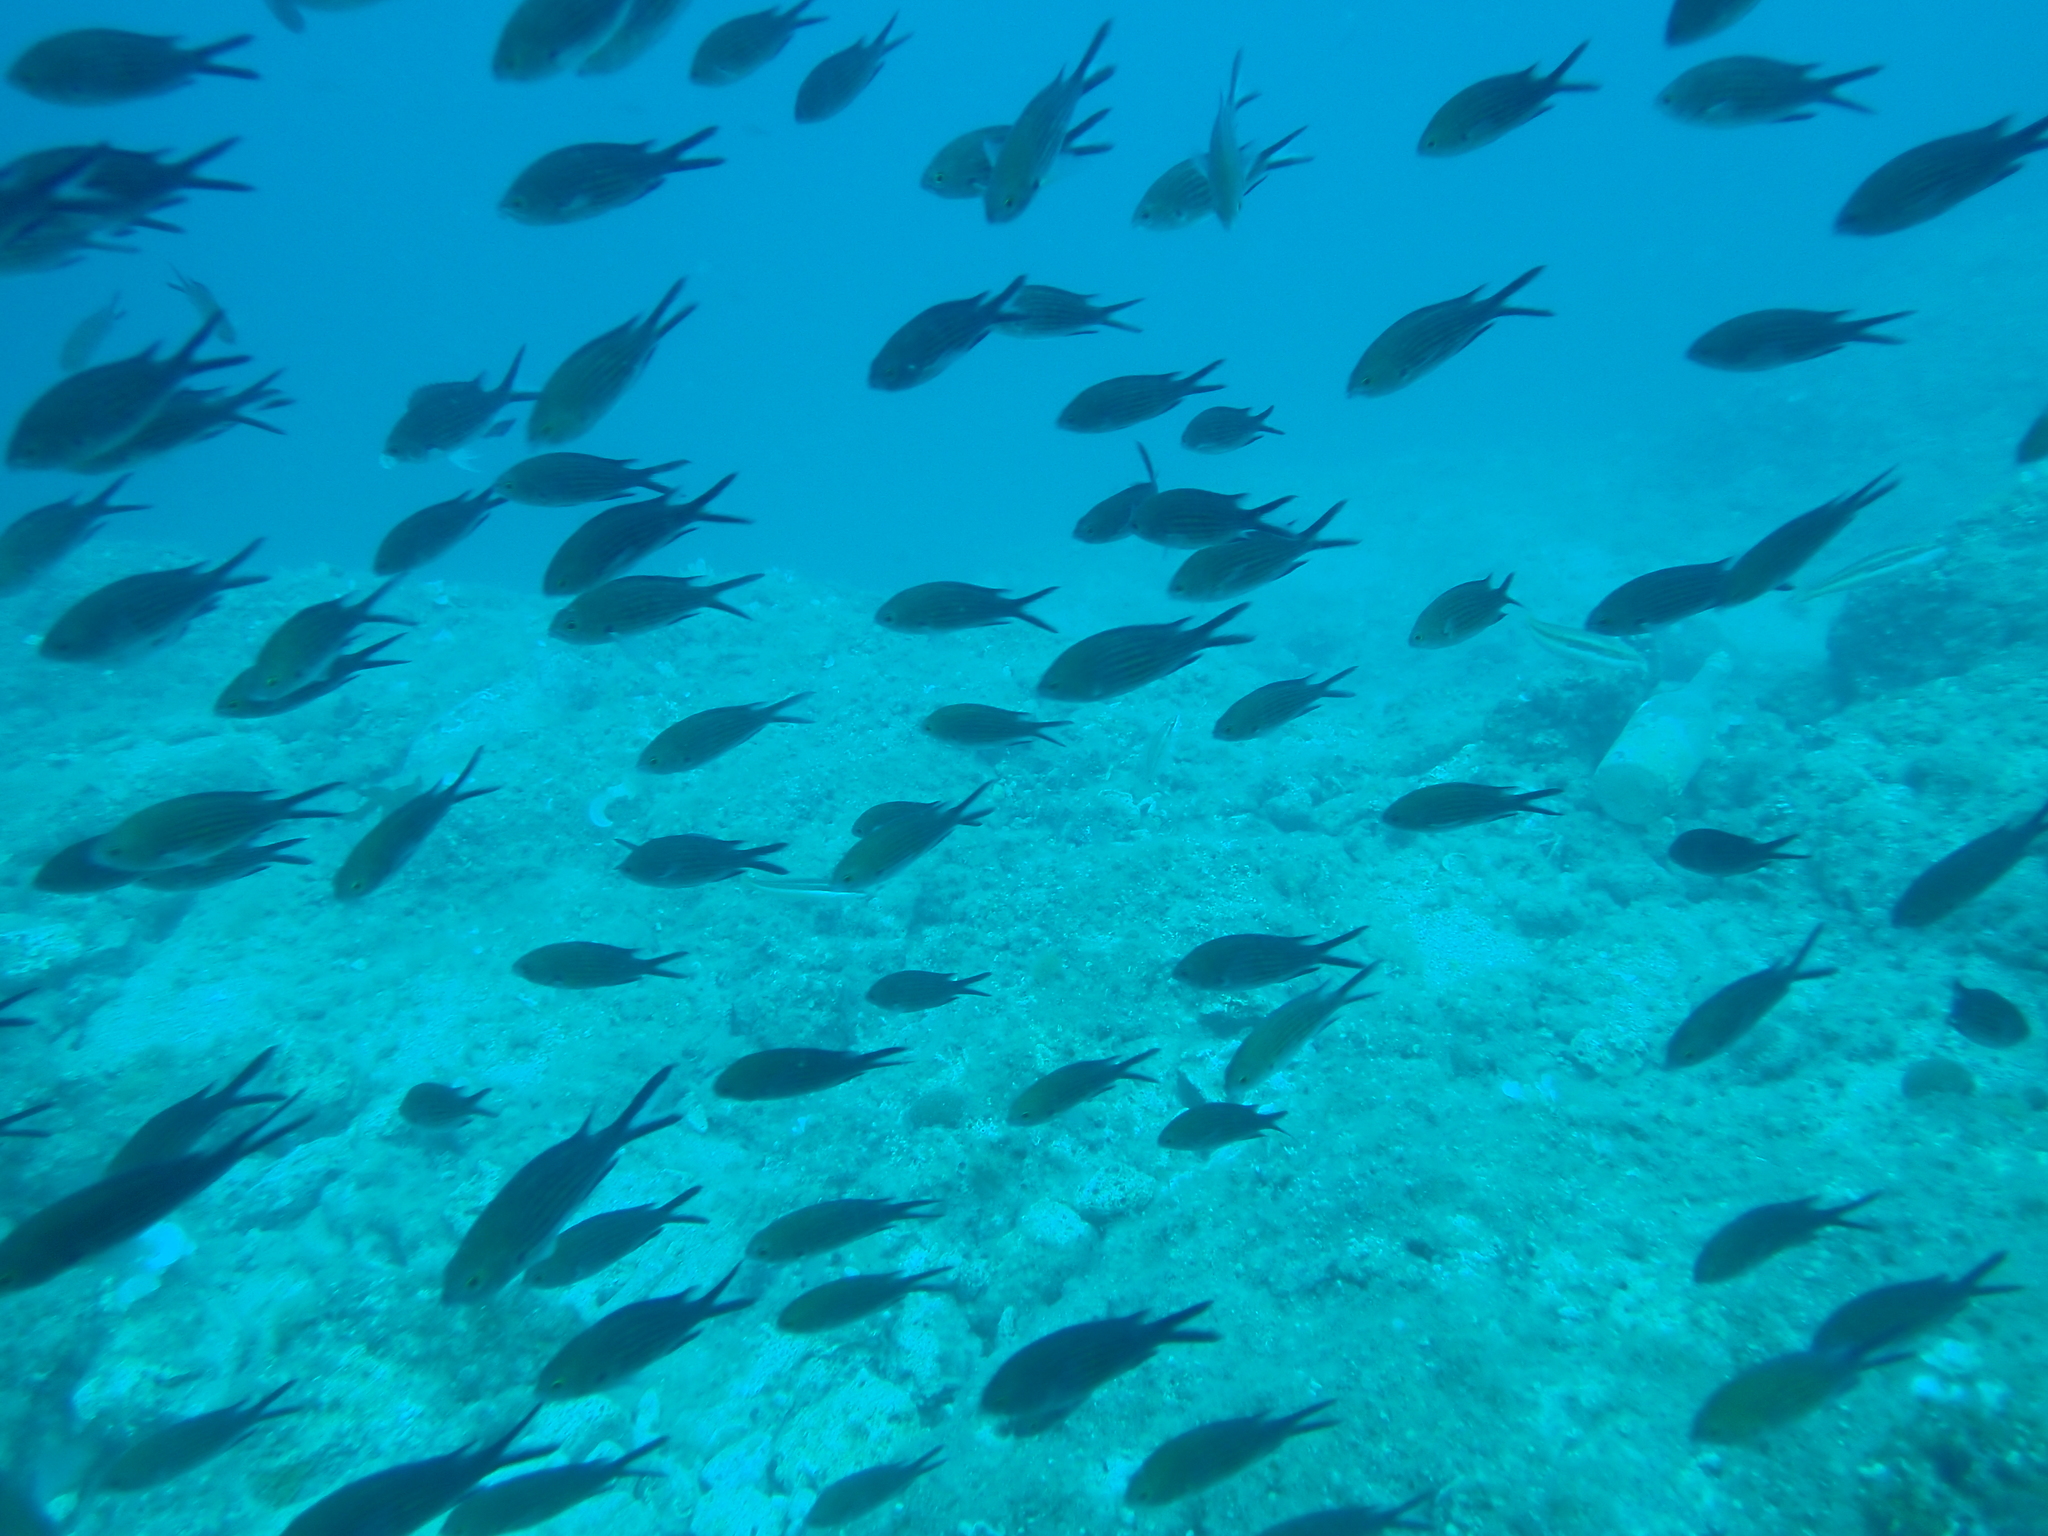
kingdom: Animalia
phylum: Chordata
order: Perciformes
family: Pomacentridae
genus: Chromis
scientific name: Chromis chromis
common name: Damselfish
